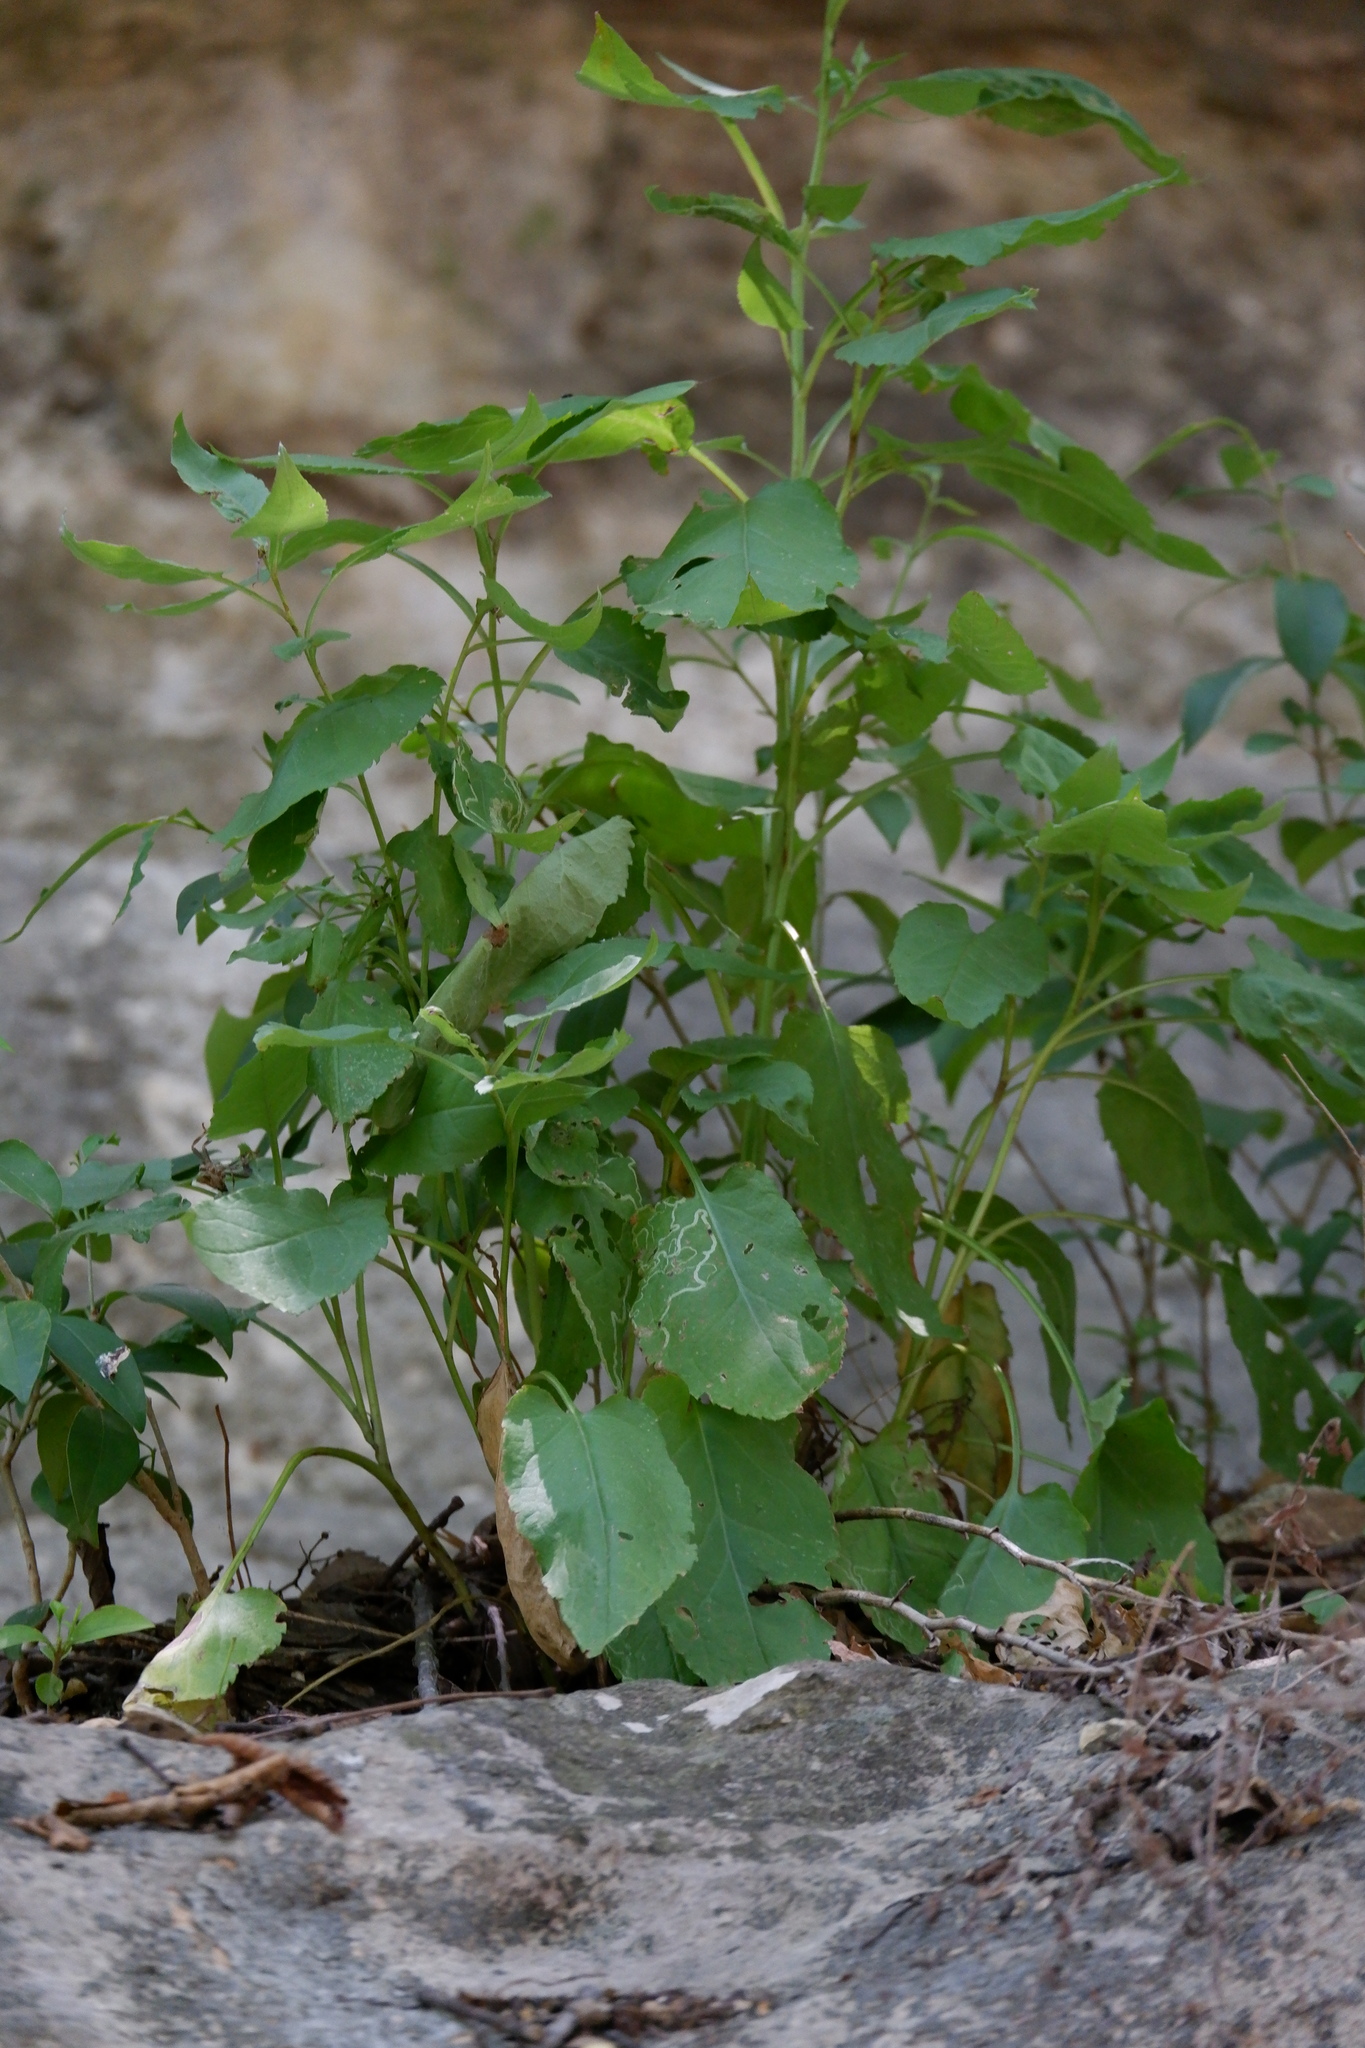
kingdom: Plantae
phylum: Tracheophyta
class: Magnoliopsida
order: Asterales
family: Asteraceae
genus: Symphyotrichum
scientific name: Symphyotrichum drummondii
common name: Drummond's aster
